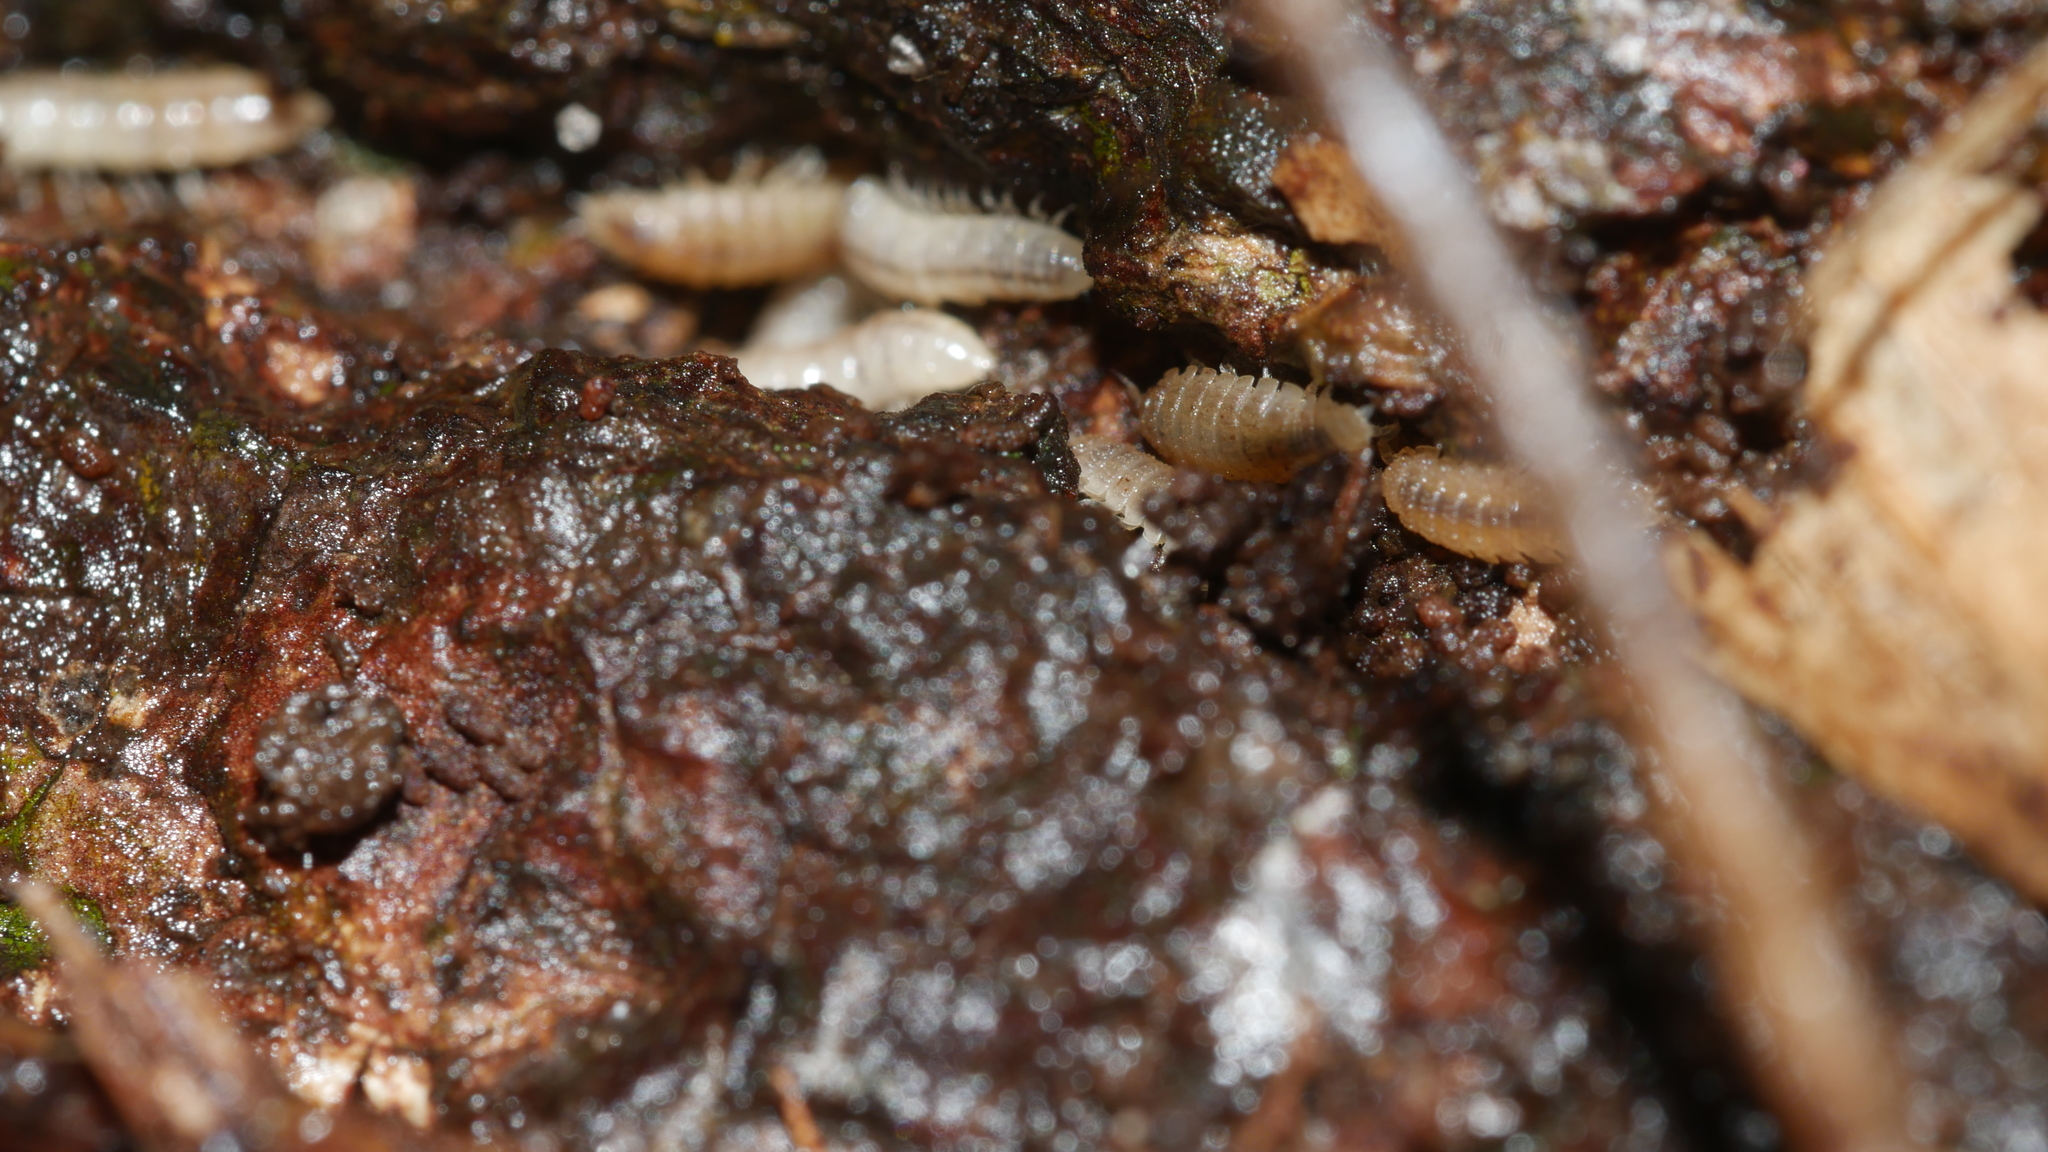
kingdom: Animalia
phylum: Arthropoda
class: Malacostraca
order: Isopoda
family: Trichoniscidae
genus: Haplophthalmus
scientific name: Haplophthalmus danicus
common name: Pillbug
